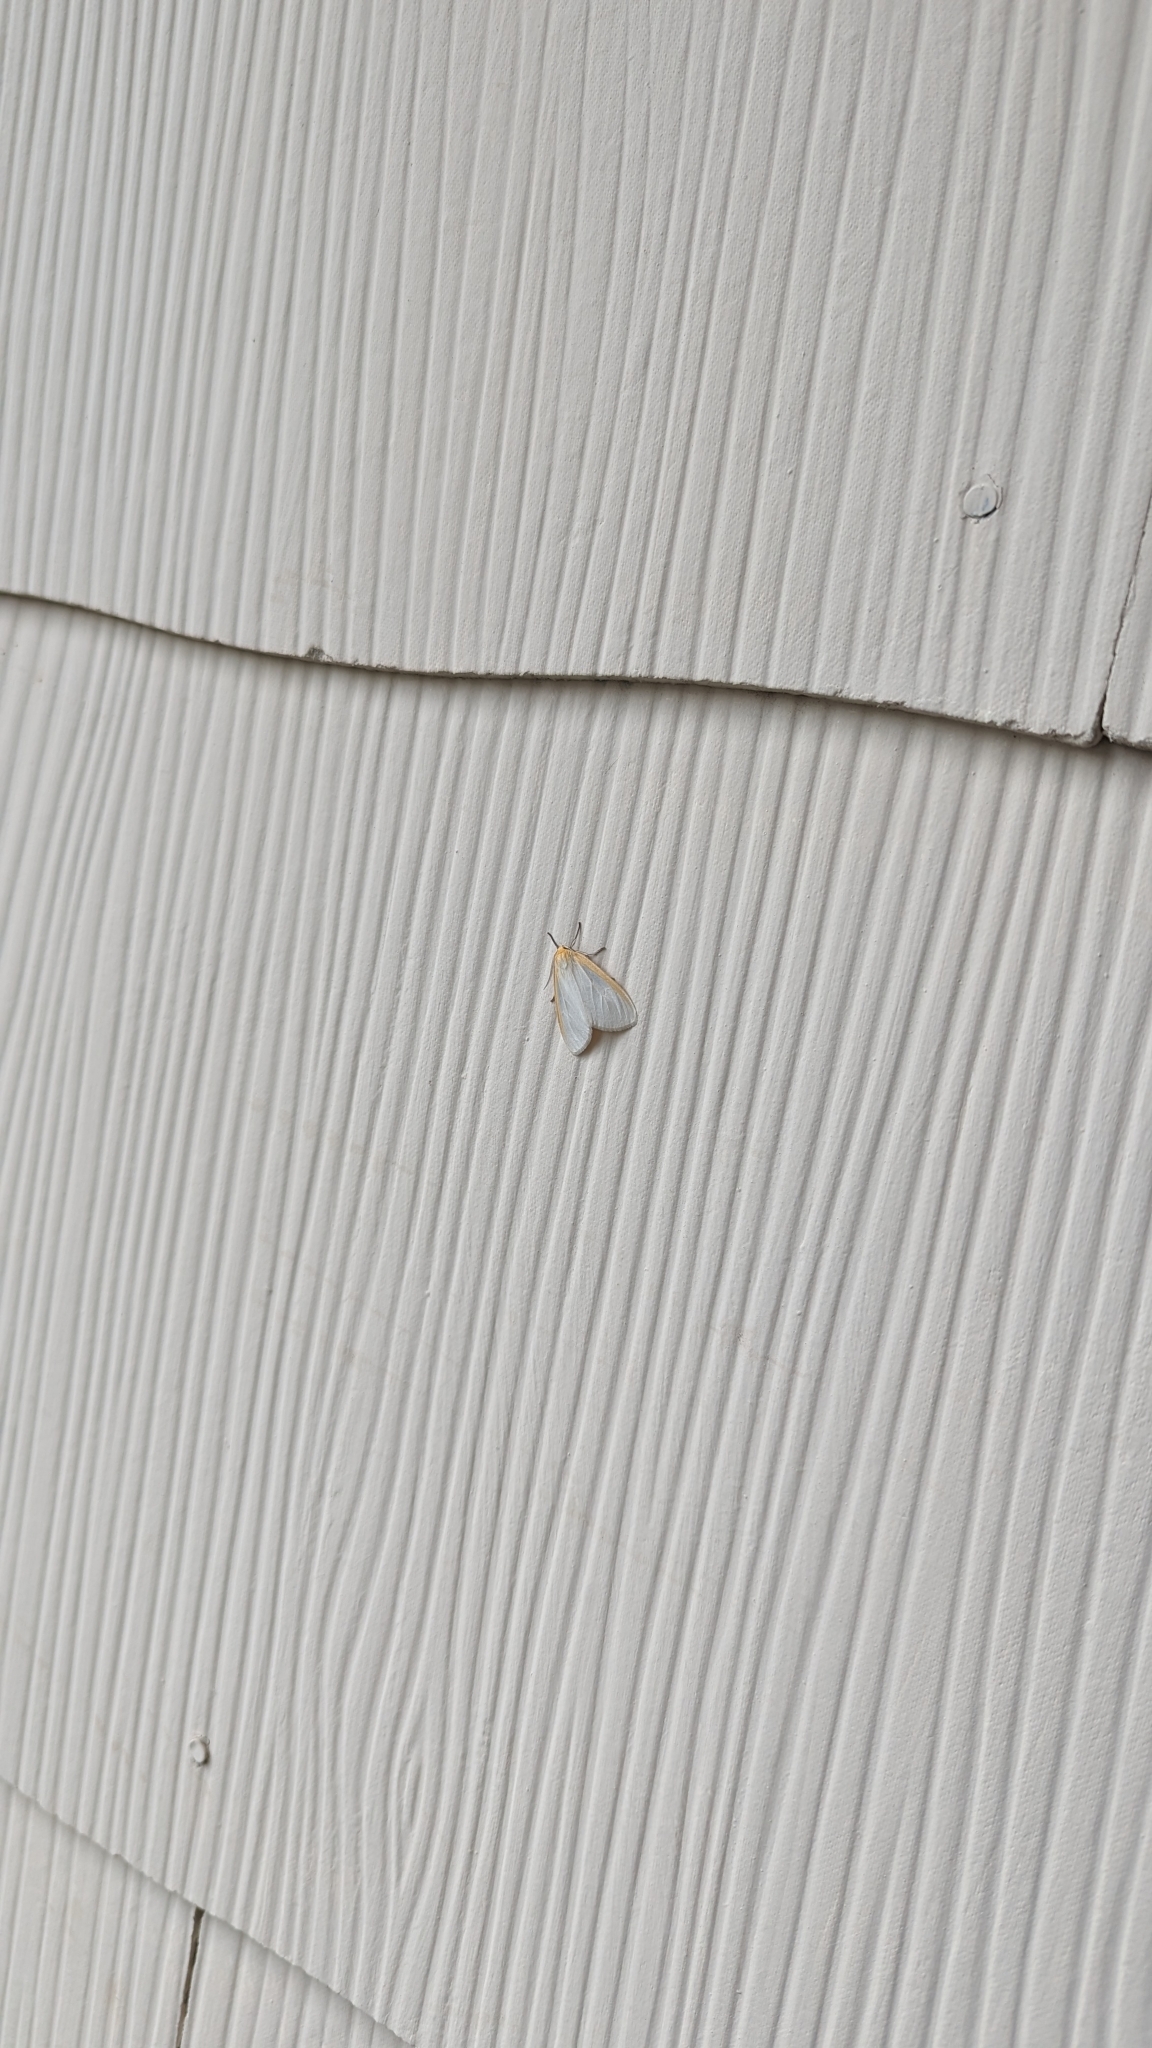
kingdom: Animalia
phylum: Arthropoda
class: Insecta
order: Lepidoptera
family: Erebidae
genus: Cycnia
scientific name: Cycnia tenera
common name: Delicate cycnia moth
